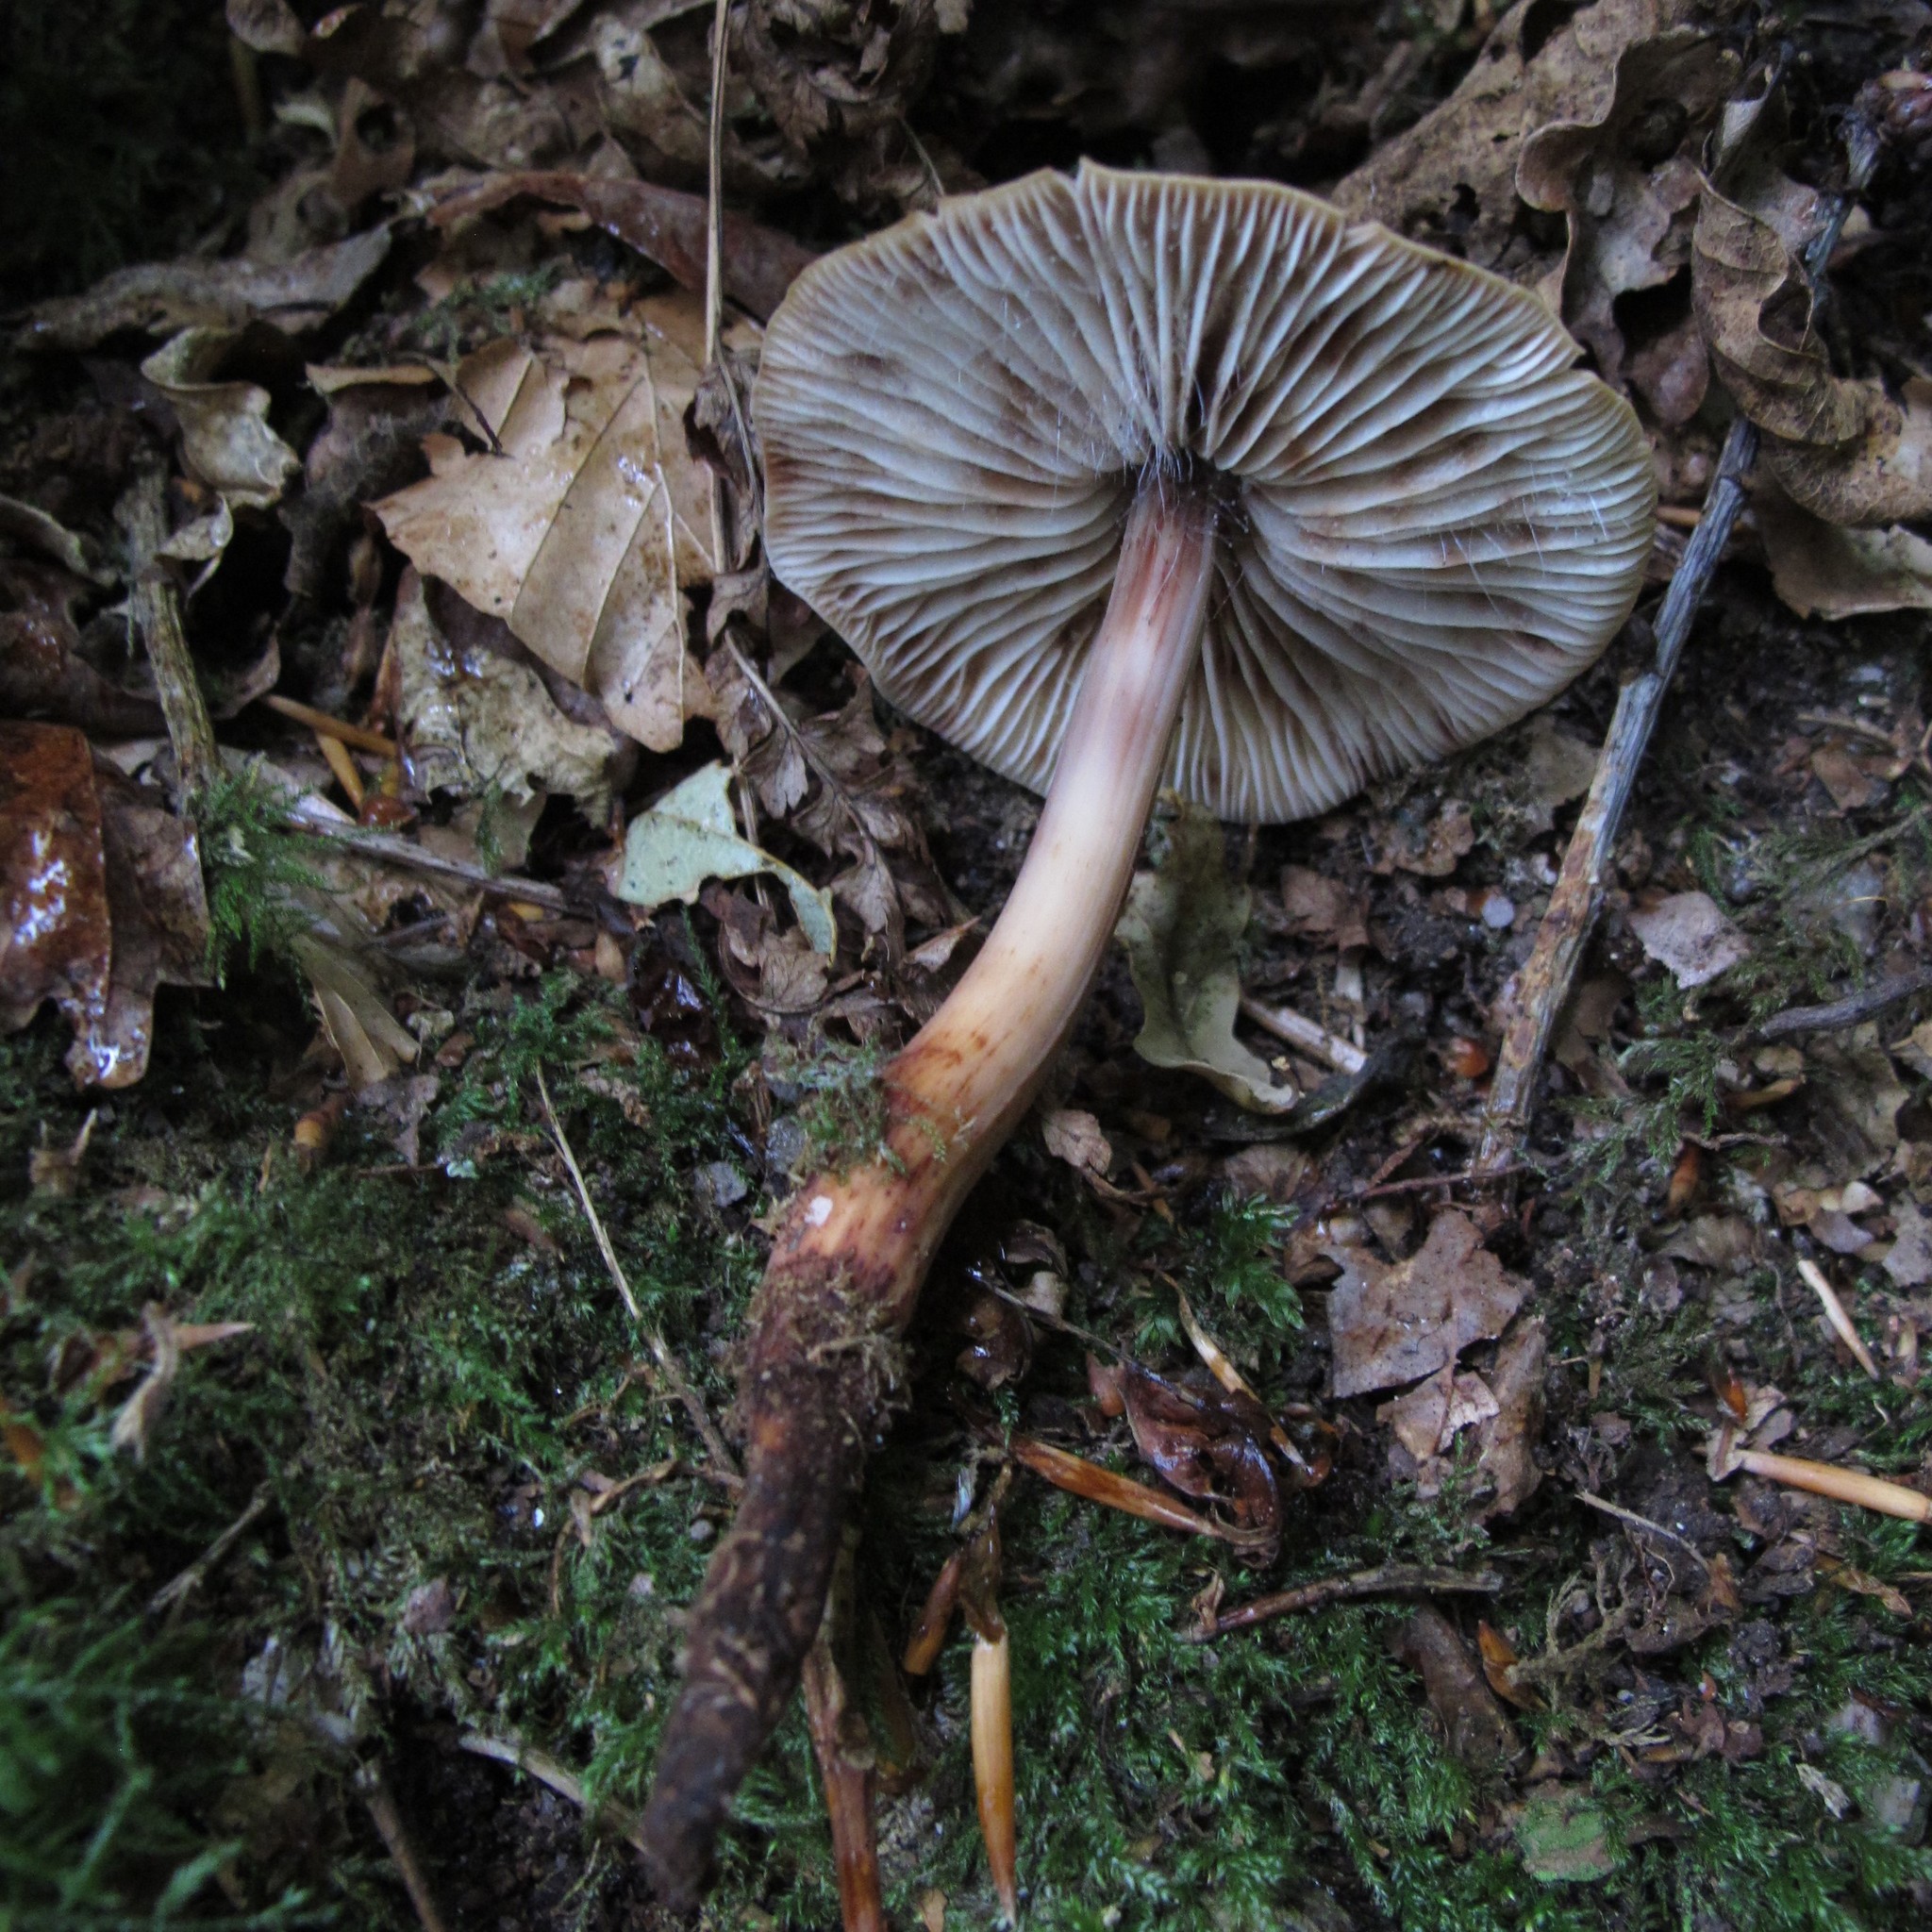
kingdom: Fungi
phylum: Basidiomycota
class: Agaricomycetes
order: Agaricales
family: Omphalotaceae
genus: Gymnopus
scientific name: Gymnopus fusipes
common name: Spindle shank
